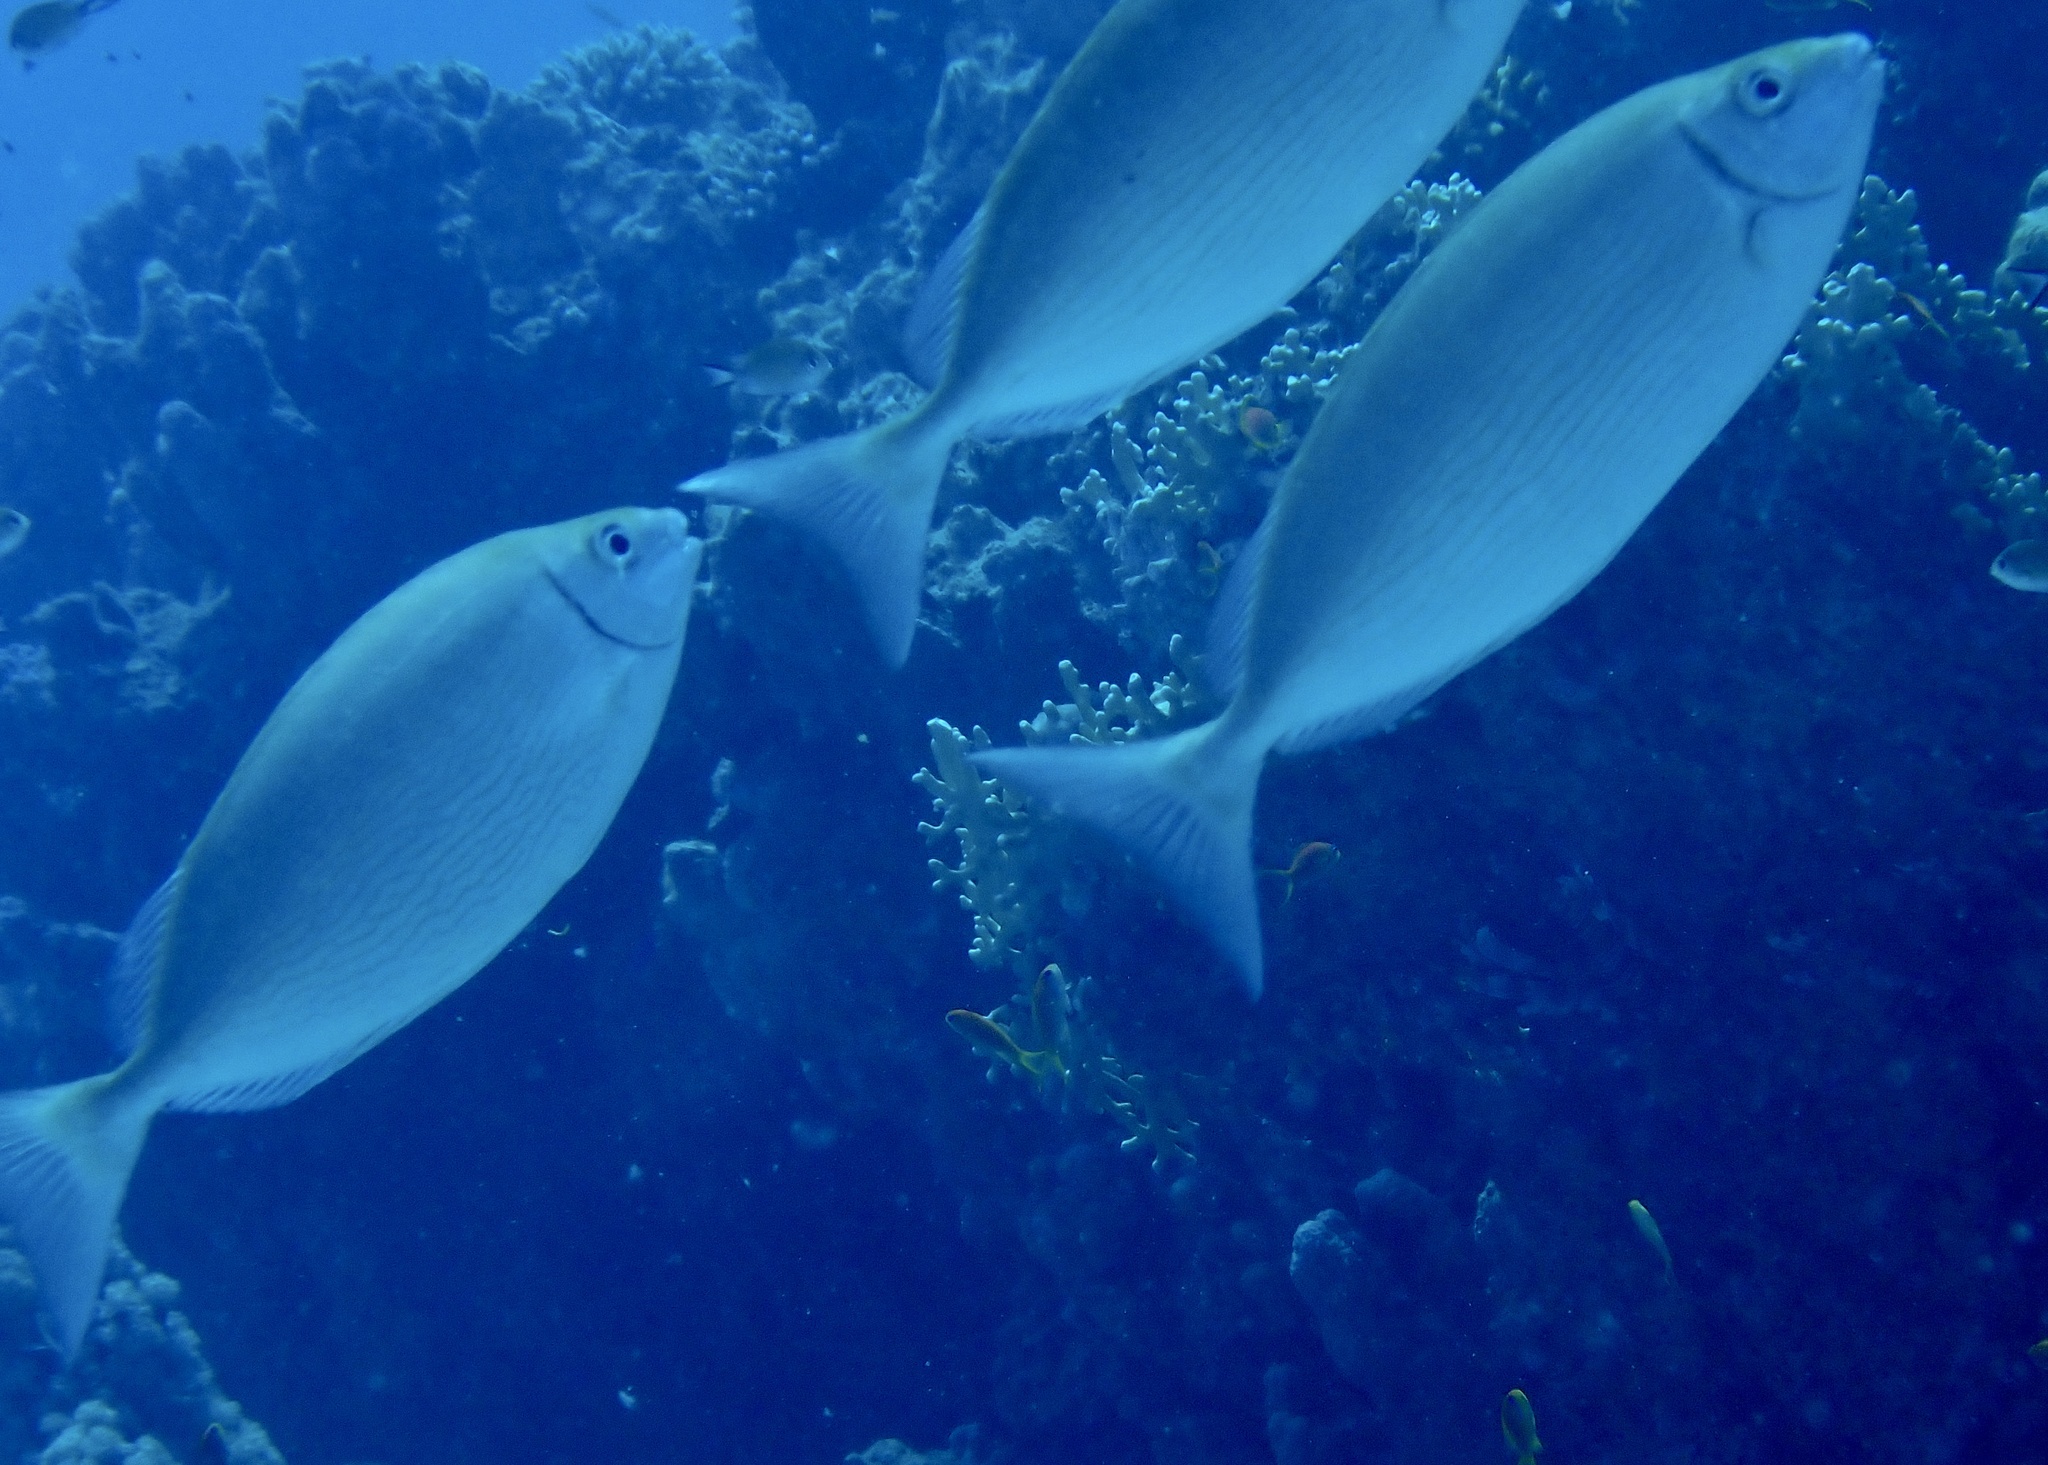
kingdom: Animalia
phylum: Chordata
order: Perciformes
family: Siganidae
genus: Siganus
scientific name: Siganus rivulatus
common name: Marbled spinefoot
